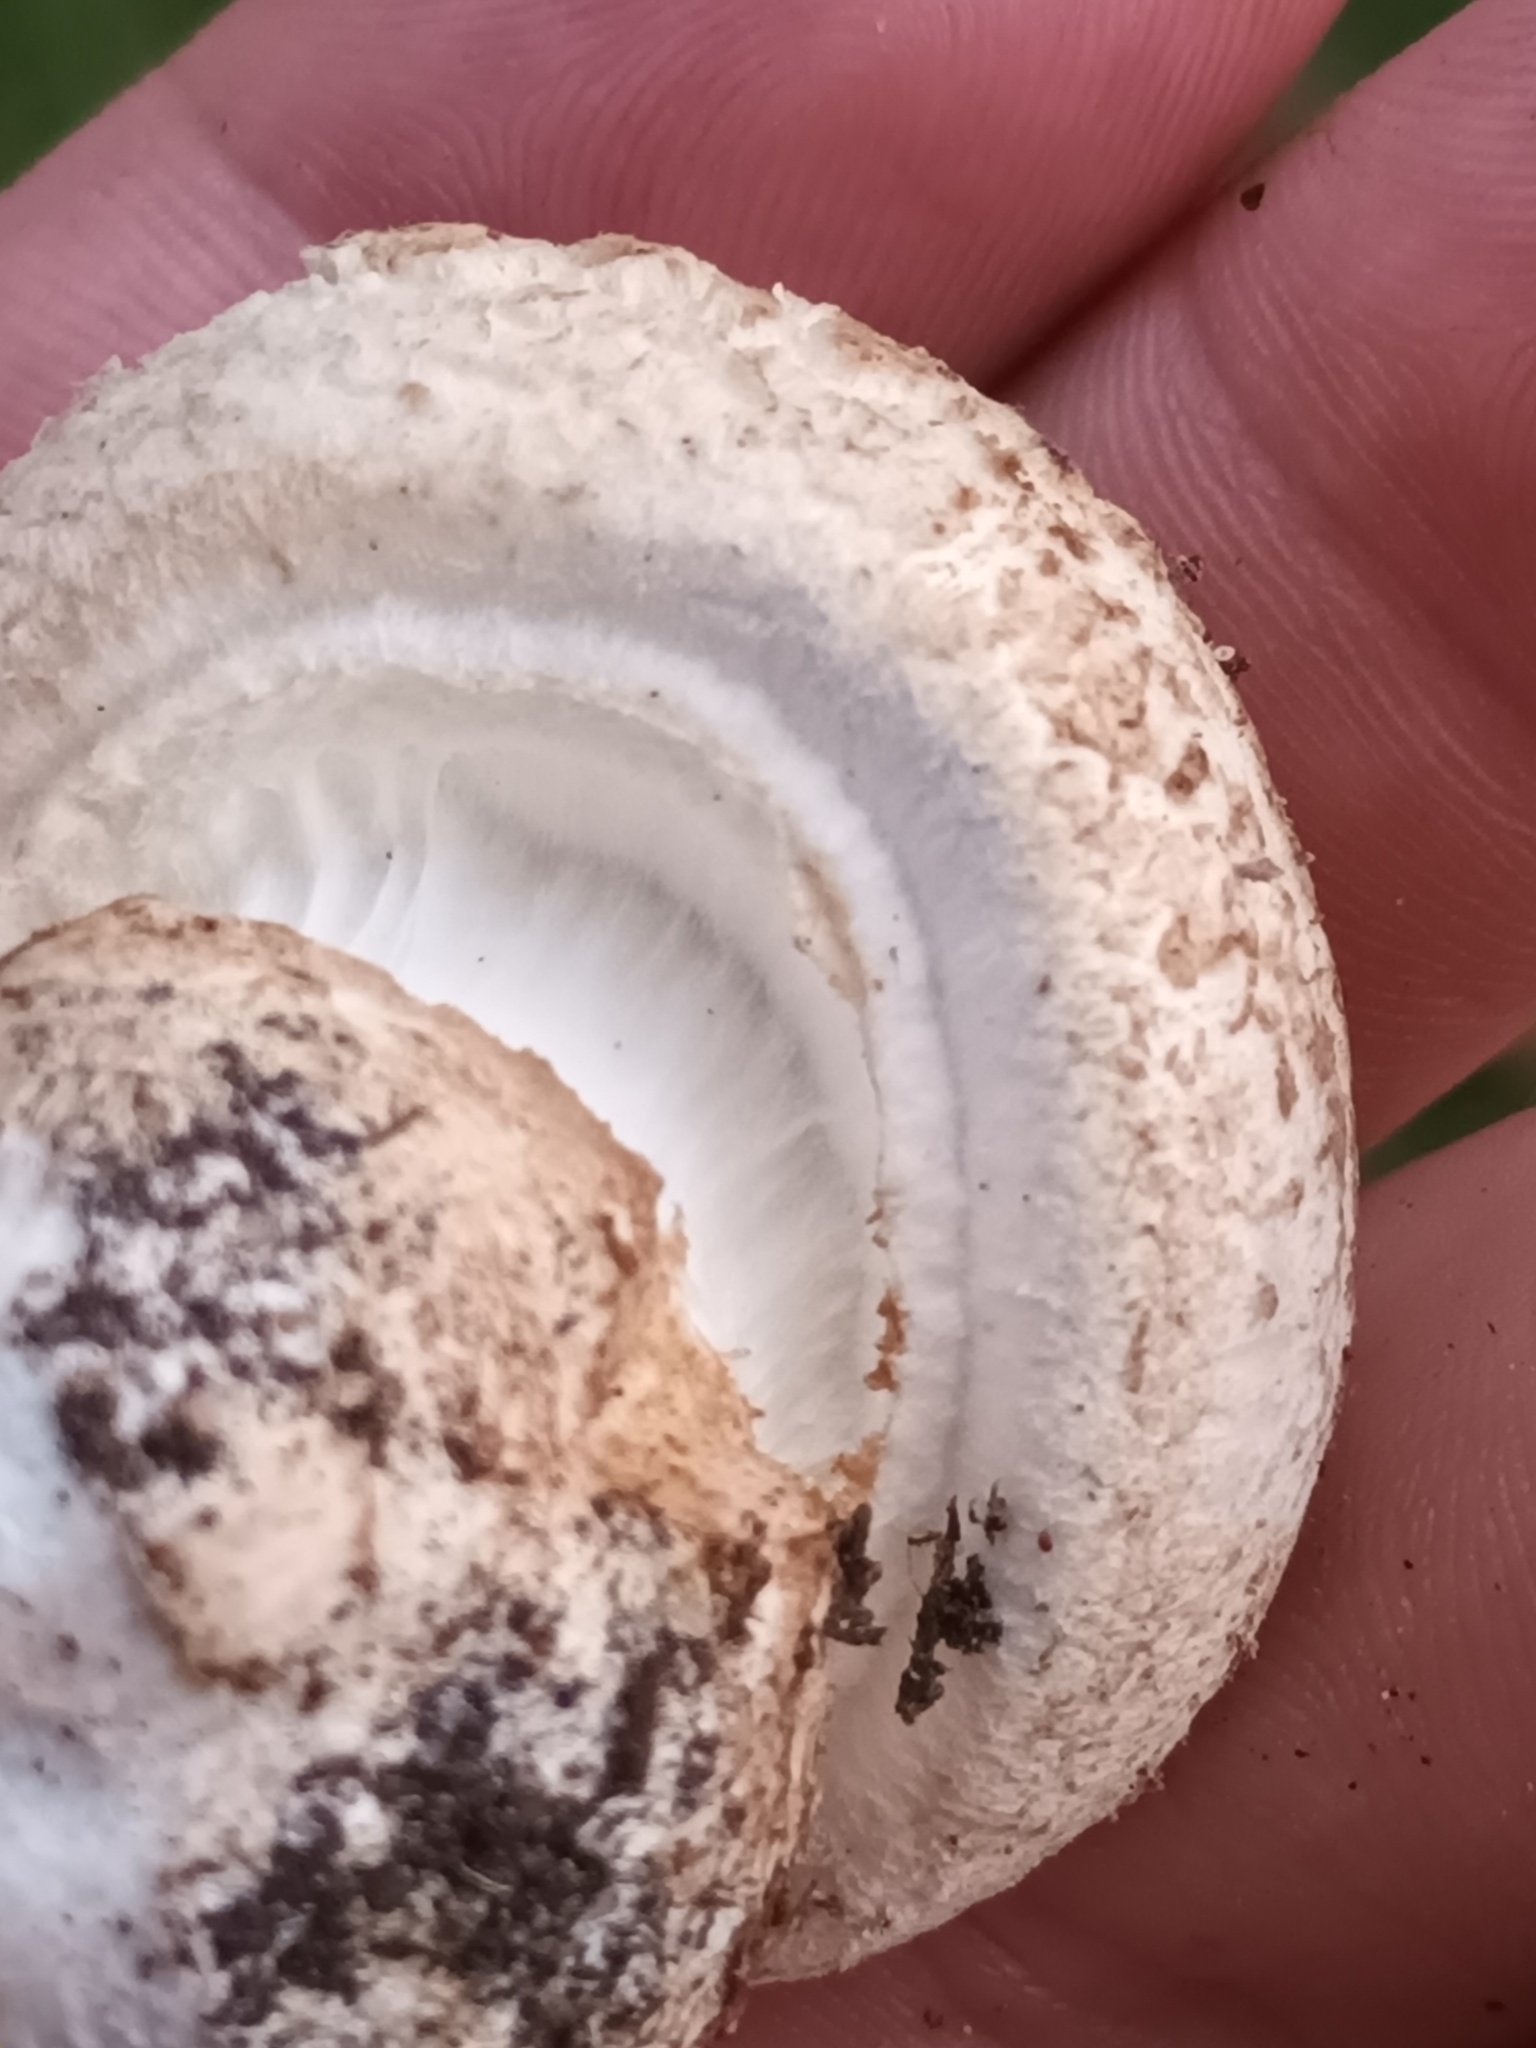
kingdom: Fungi
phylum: Basidiomycota
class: Agaricomycetes
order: Agaricales
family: Amanitaceae
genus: Amanita
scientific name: Amanita rubescens
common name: Blusher
